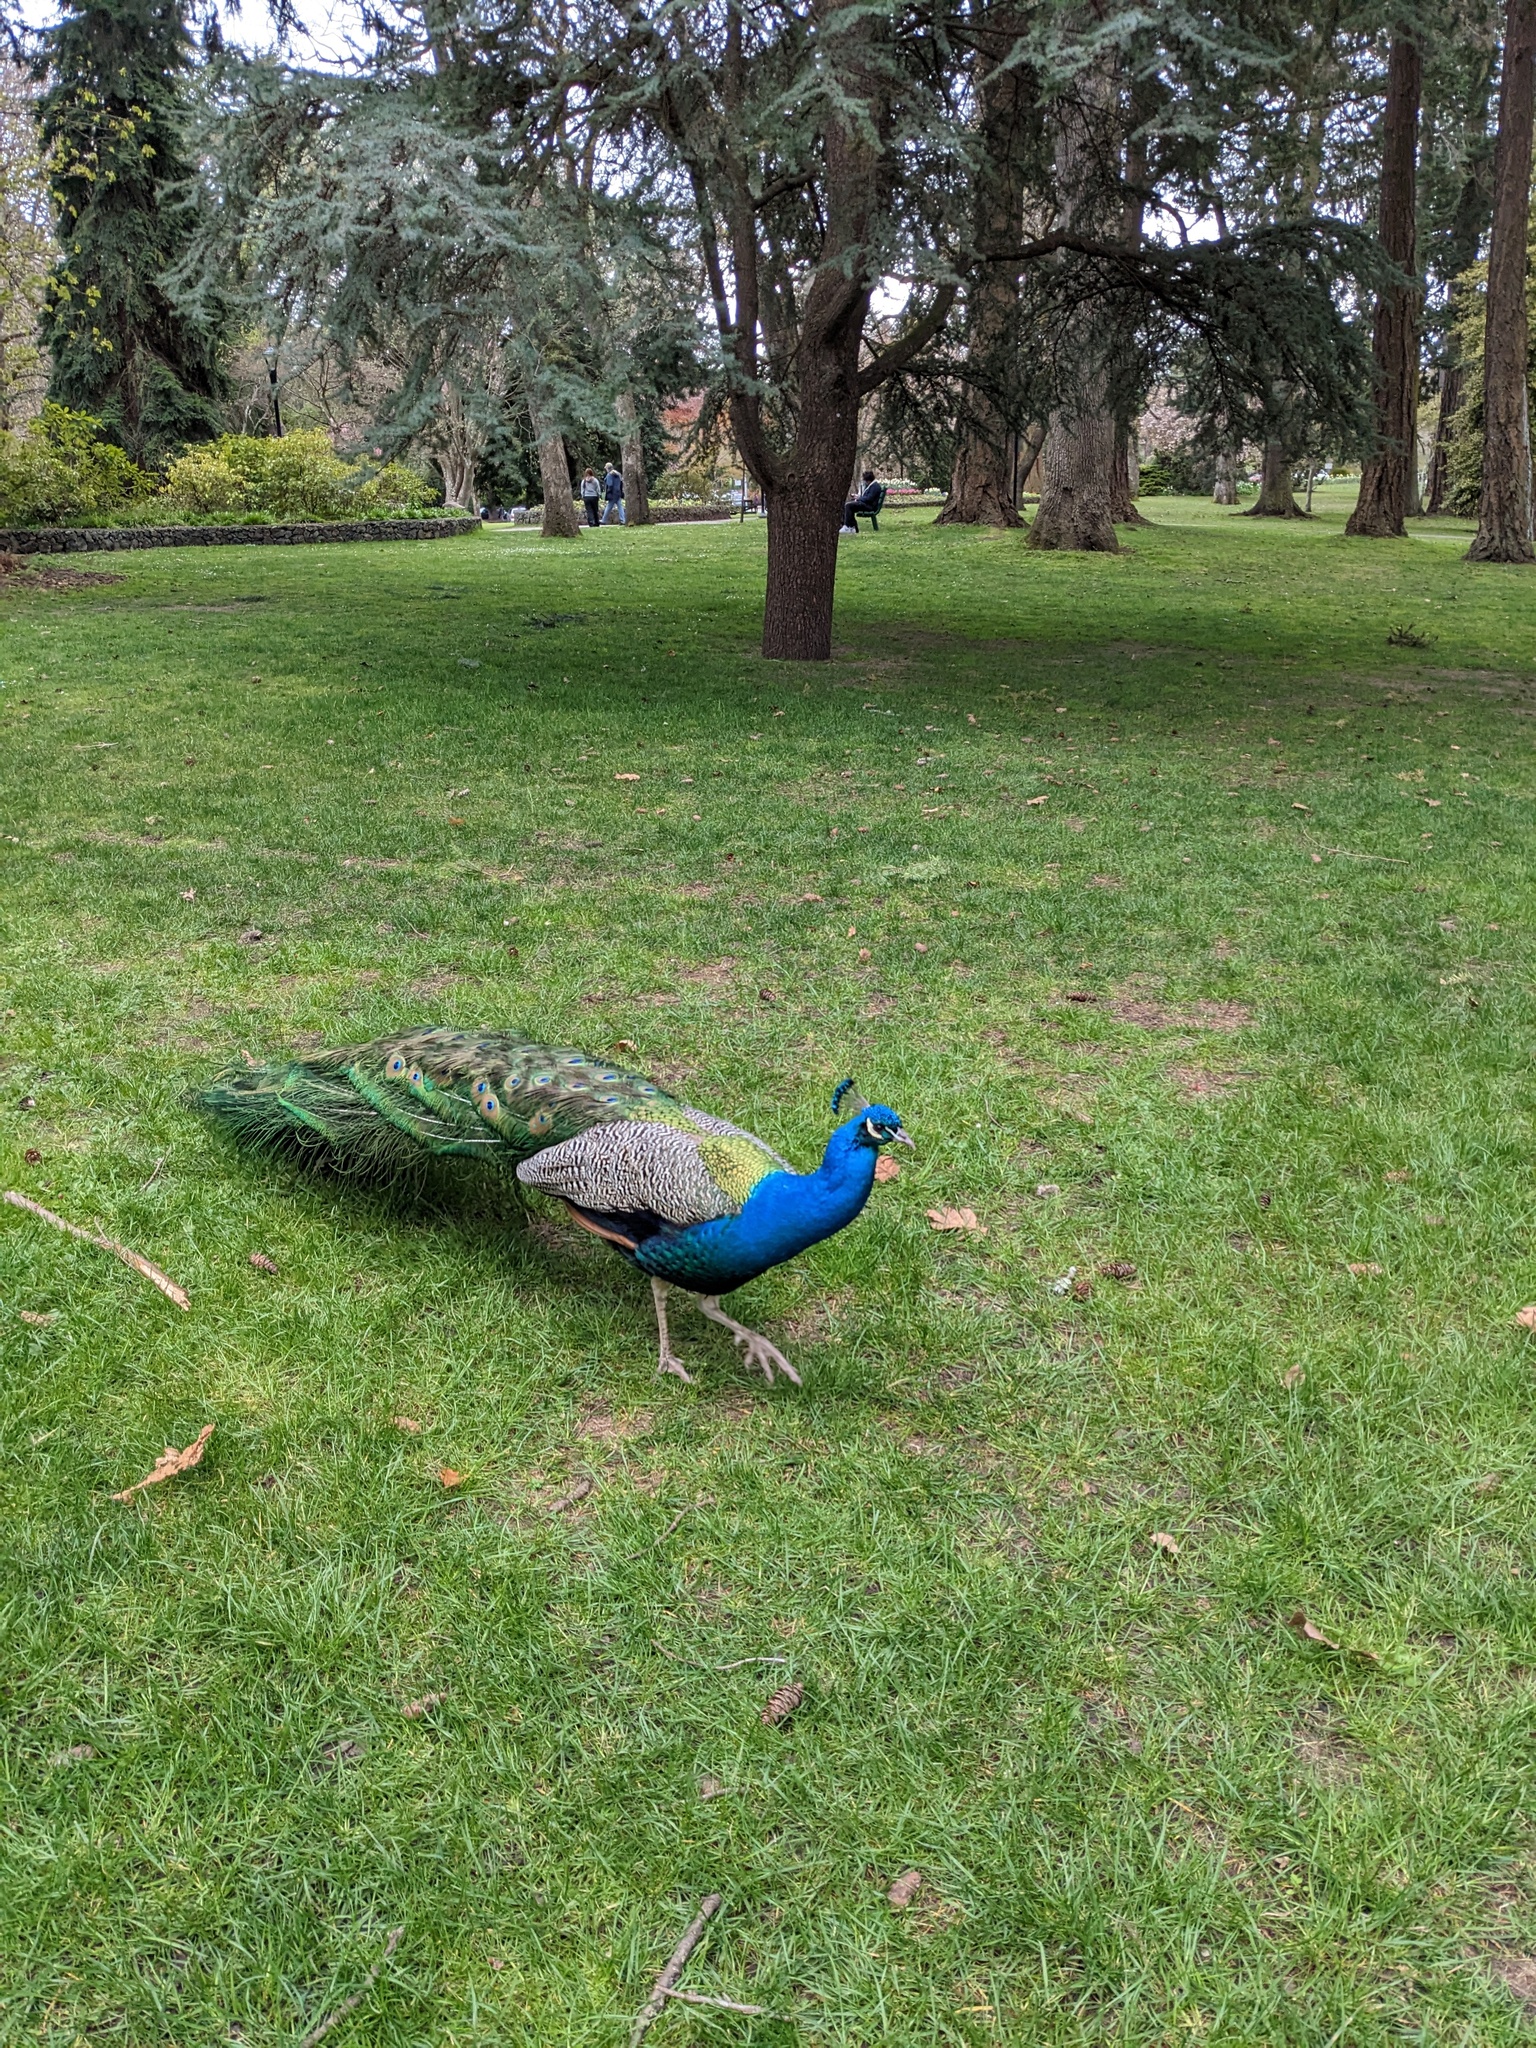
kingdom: Animalia
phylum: Chordata
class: Aves
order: Galliformes
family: Phasianidae
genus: Pavo
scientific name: Pavo cristatus
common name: Indian peafowl
